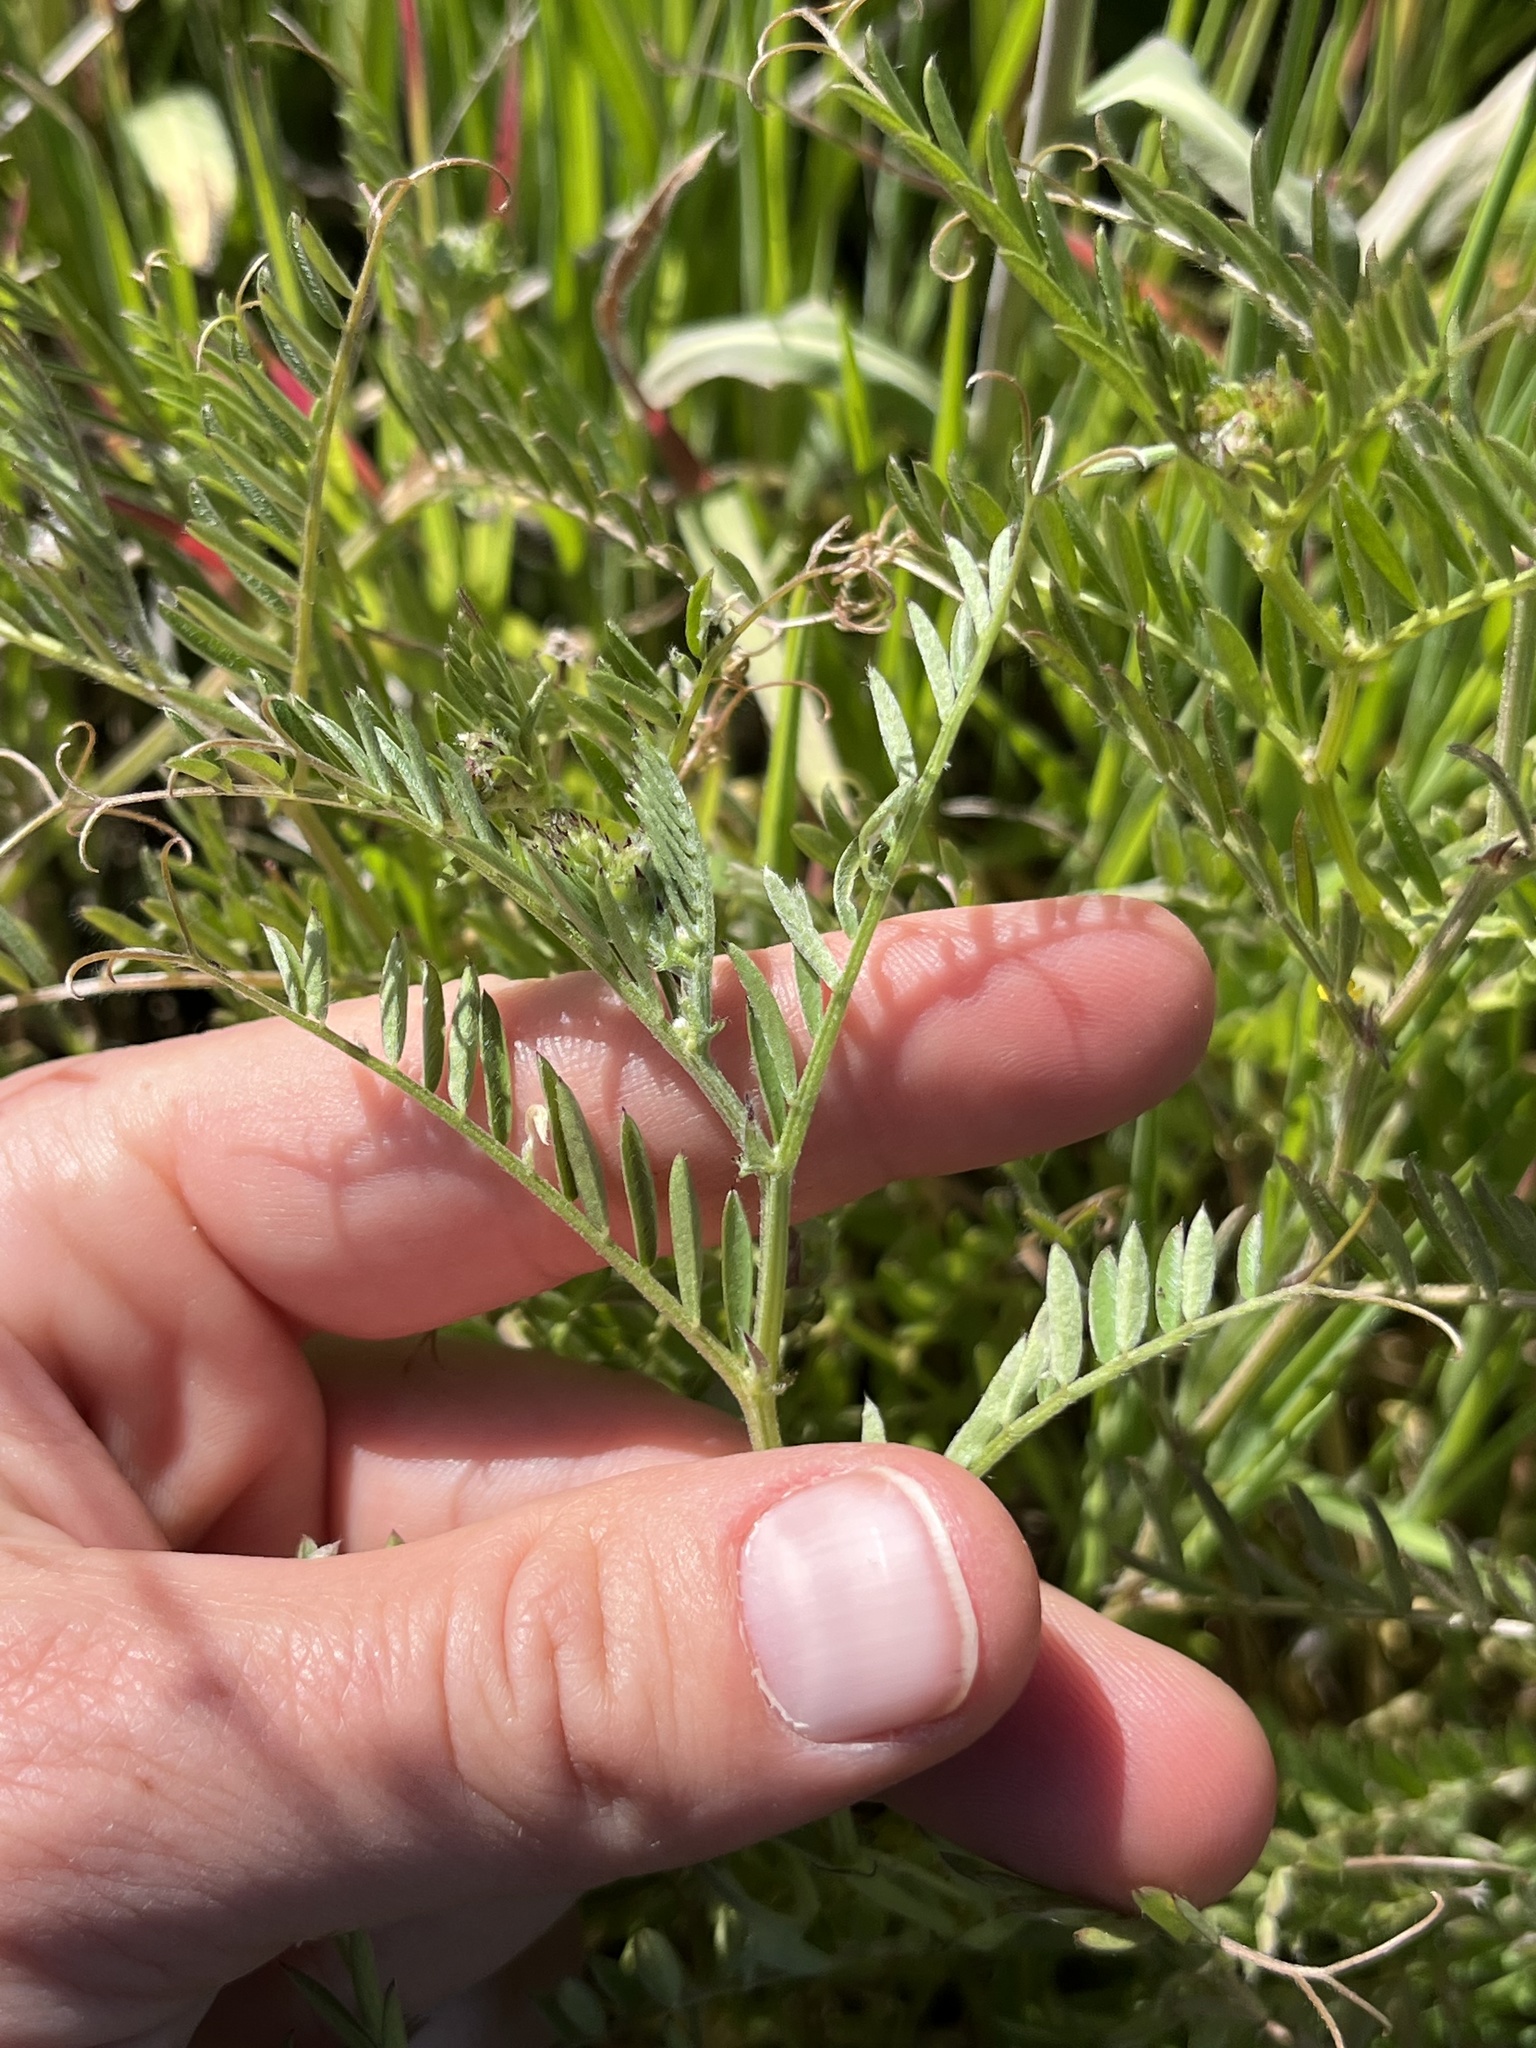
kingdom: Plantae
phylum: Tracheophyta
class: Magnoliopsida
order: Fabales
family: Fabaceae
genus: Vicia
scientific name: Vicia villosa
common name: Fodder vetch
